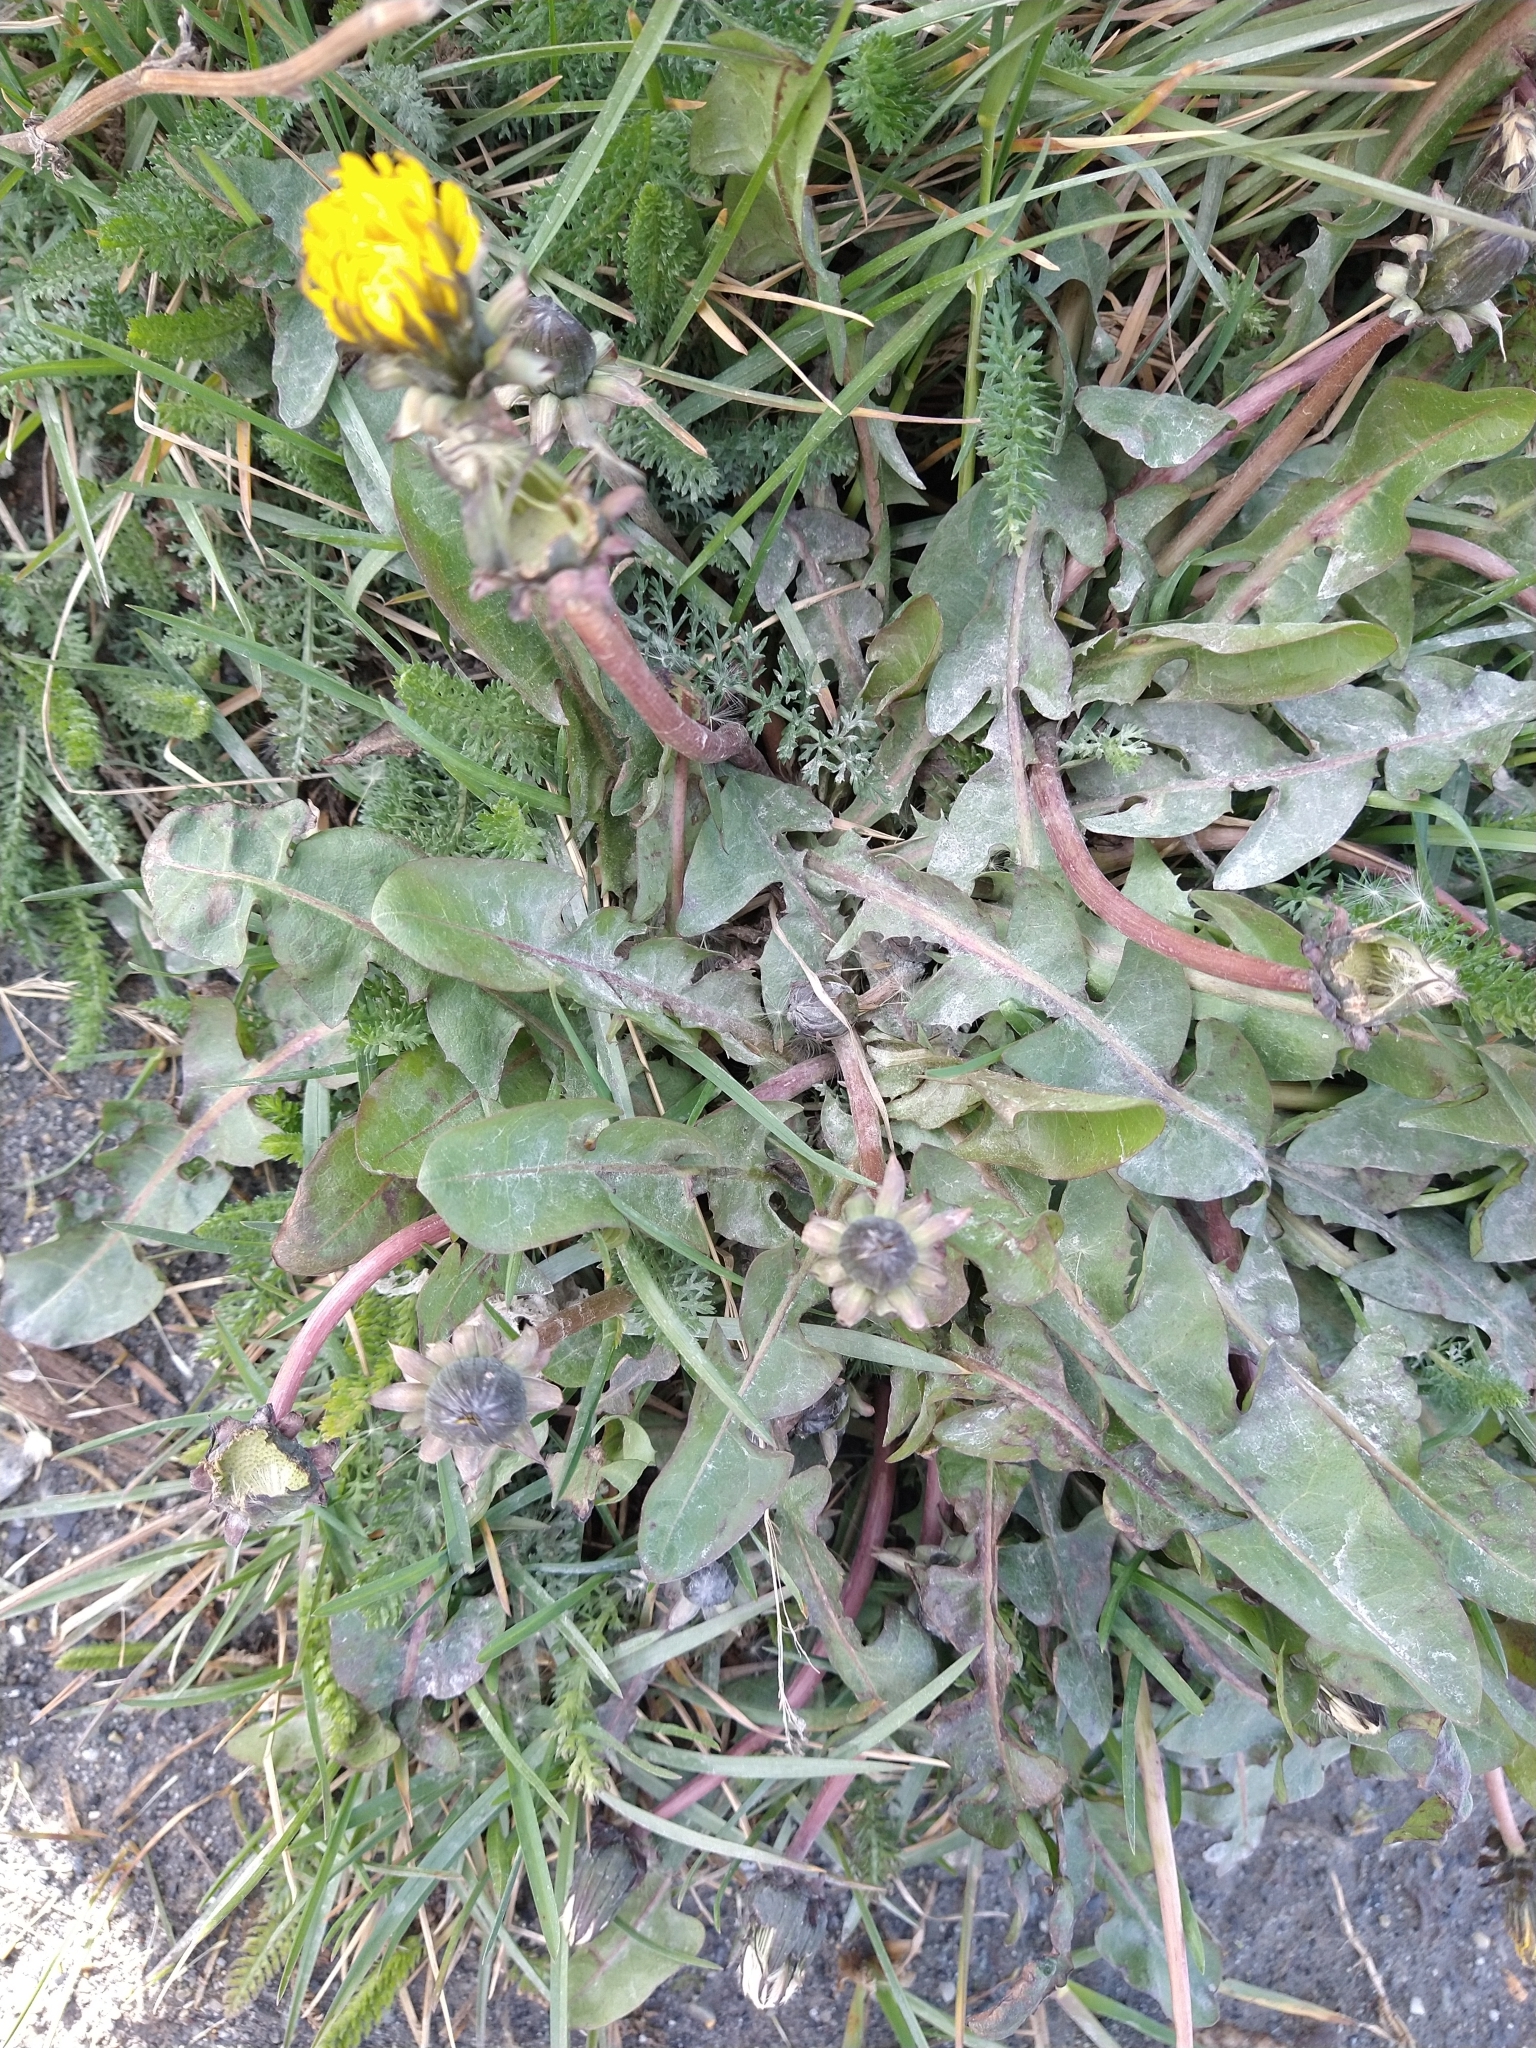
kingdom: Plantae
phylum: Tracheophyta
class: Magnoliopsida
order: Asterales
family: Asteraceae
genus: Taraxacum
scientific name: Taraxacum officinale
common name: Common dandelion
